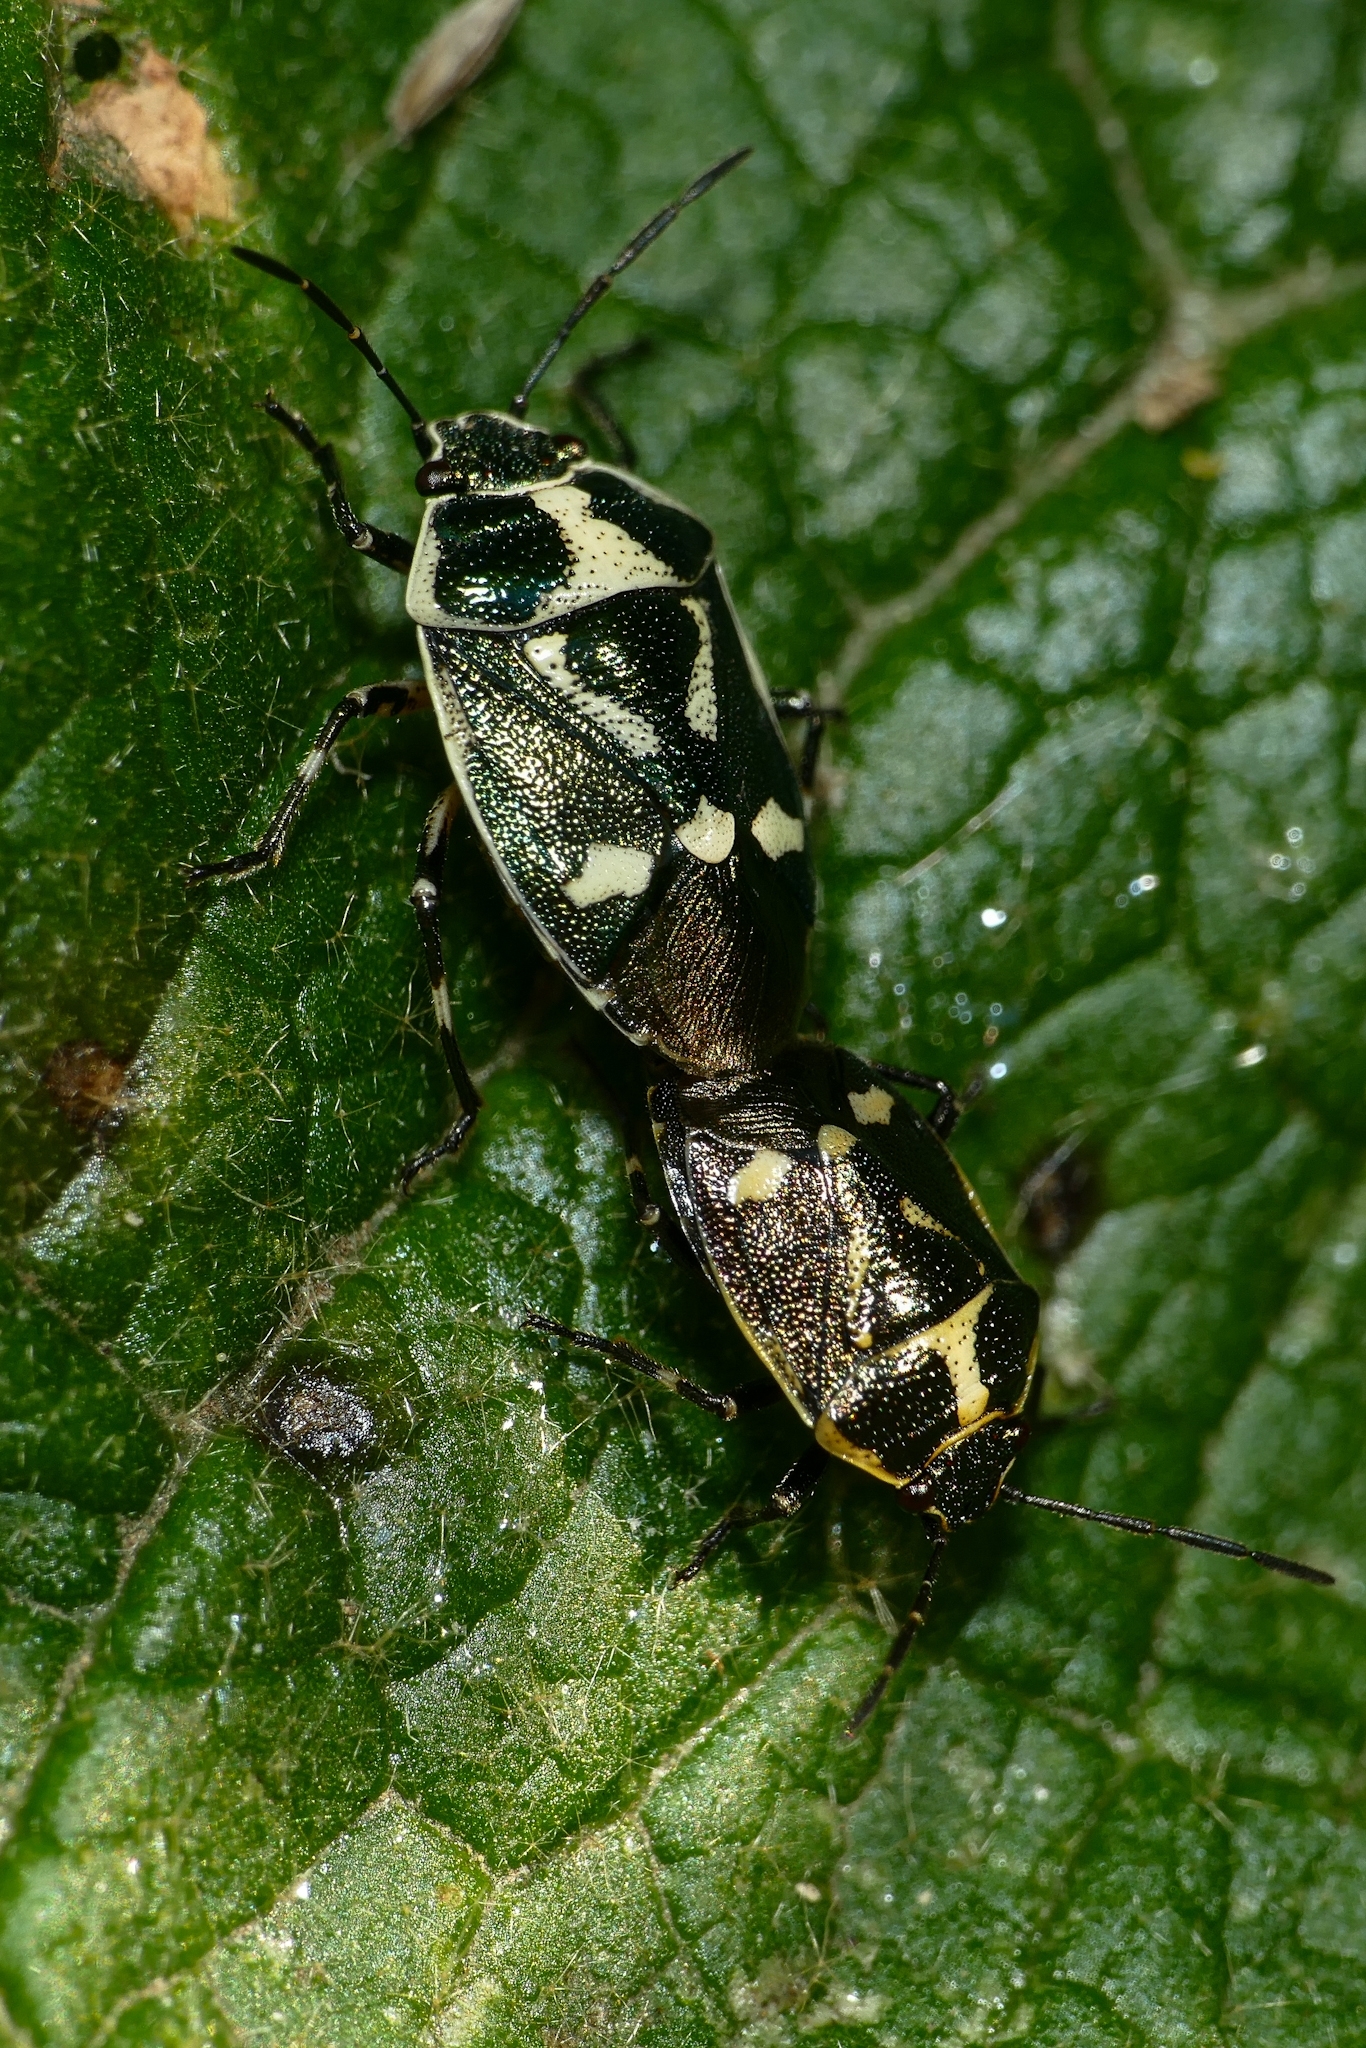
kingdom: Animalia
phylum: Arthropoda
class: Insecta
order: Hemiptera
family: Pentatomidae
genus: Eurydema
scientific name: Eurydema oleracea
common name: Cabbage bug
